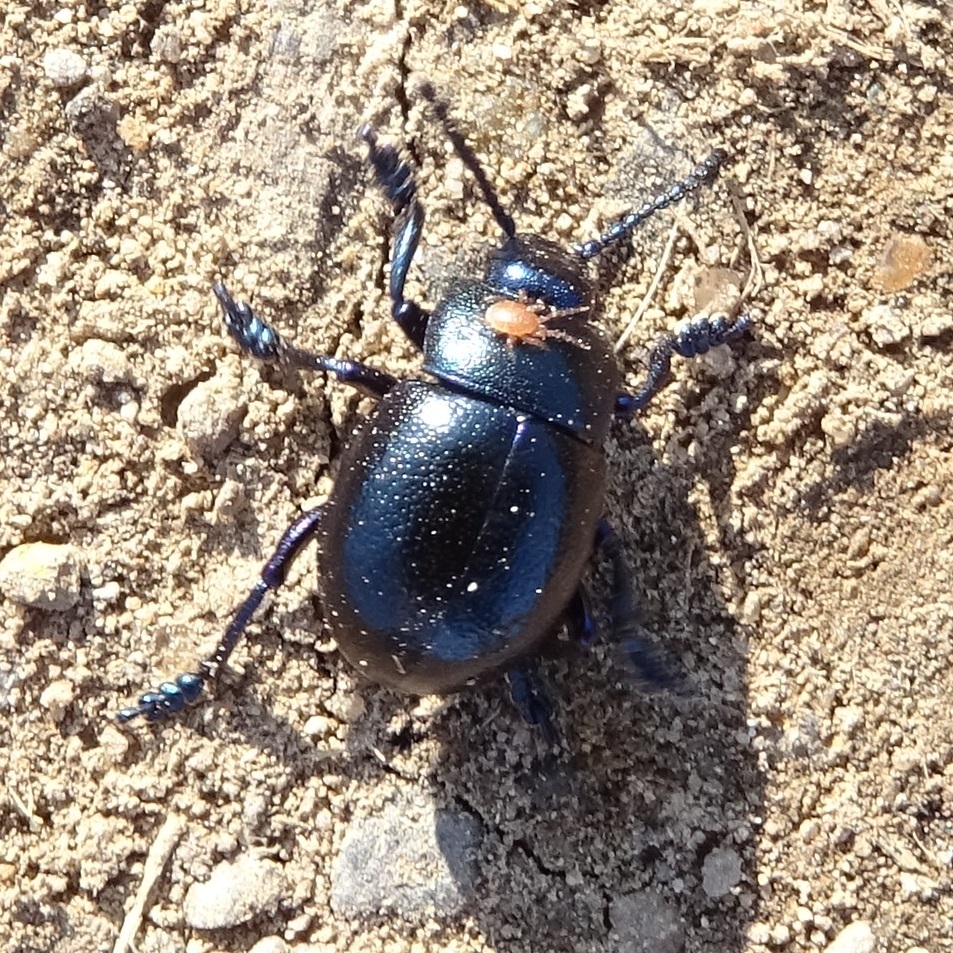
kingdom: Animalia
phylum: Arthropoda
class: Insecta
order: Coleoptera
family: Chrysomelidae
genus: Timarcha
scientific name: Timarcha goettingensis
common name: Small bloody-nosed beetle
